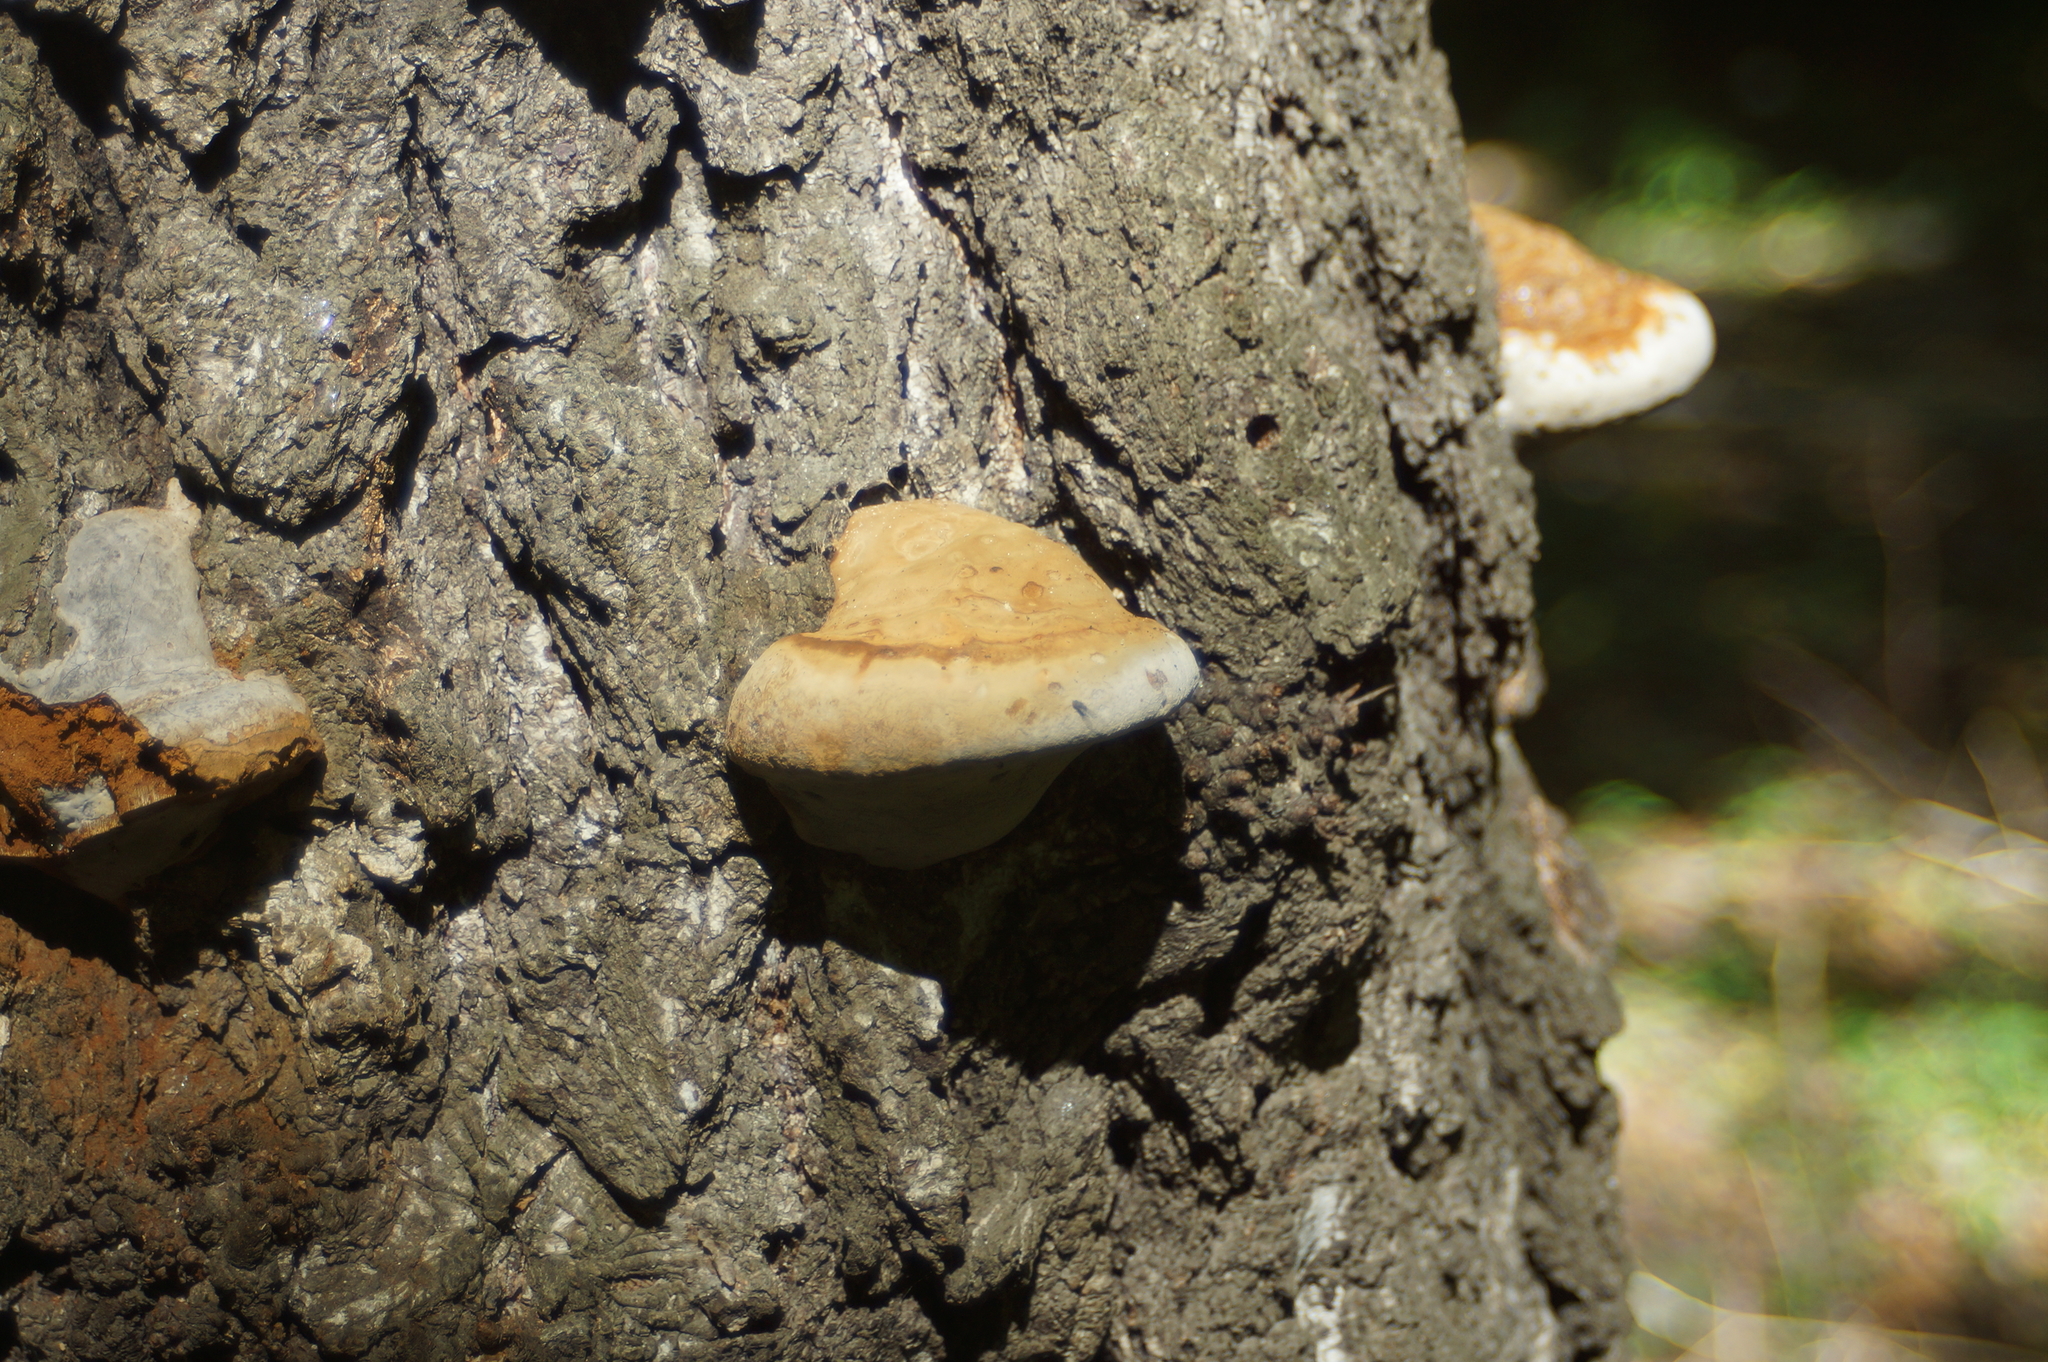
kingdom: Fungi
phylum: Basidiomycota
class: Agaricomycetes
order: Polyporales
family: Fomitopsidaceae
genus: Fomitopsis
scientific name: Fomitopsis pinicola
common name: Red-belted bracket
